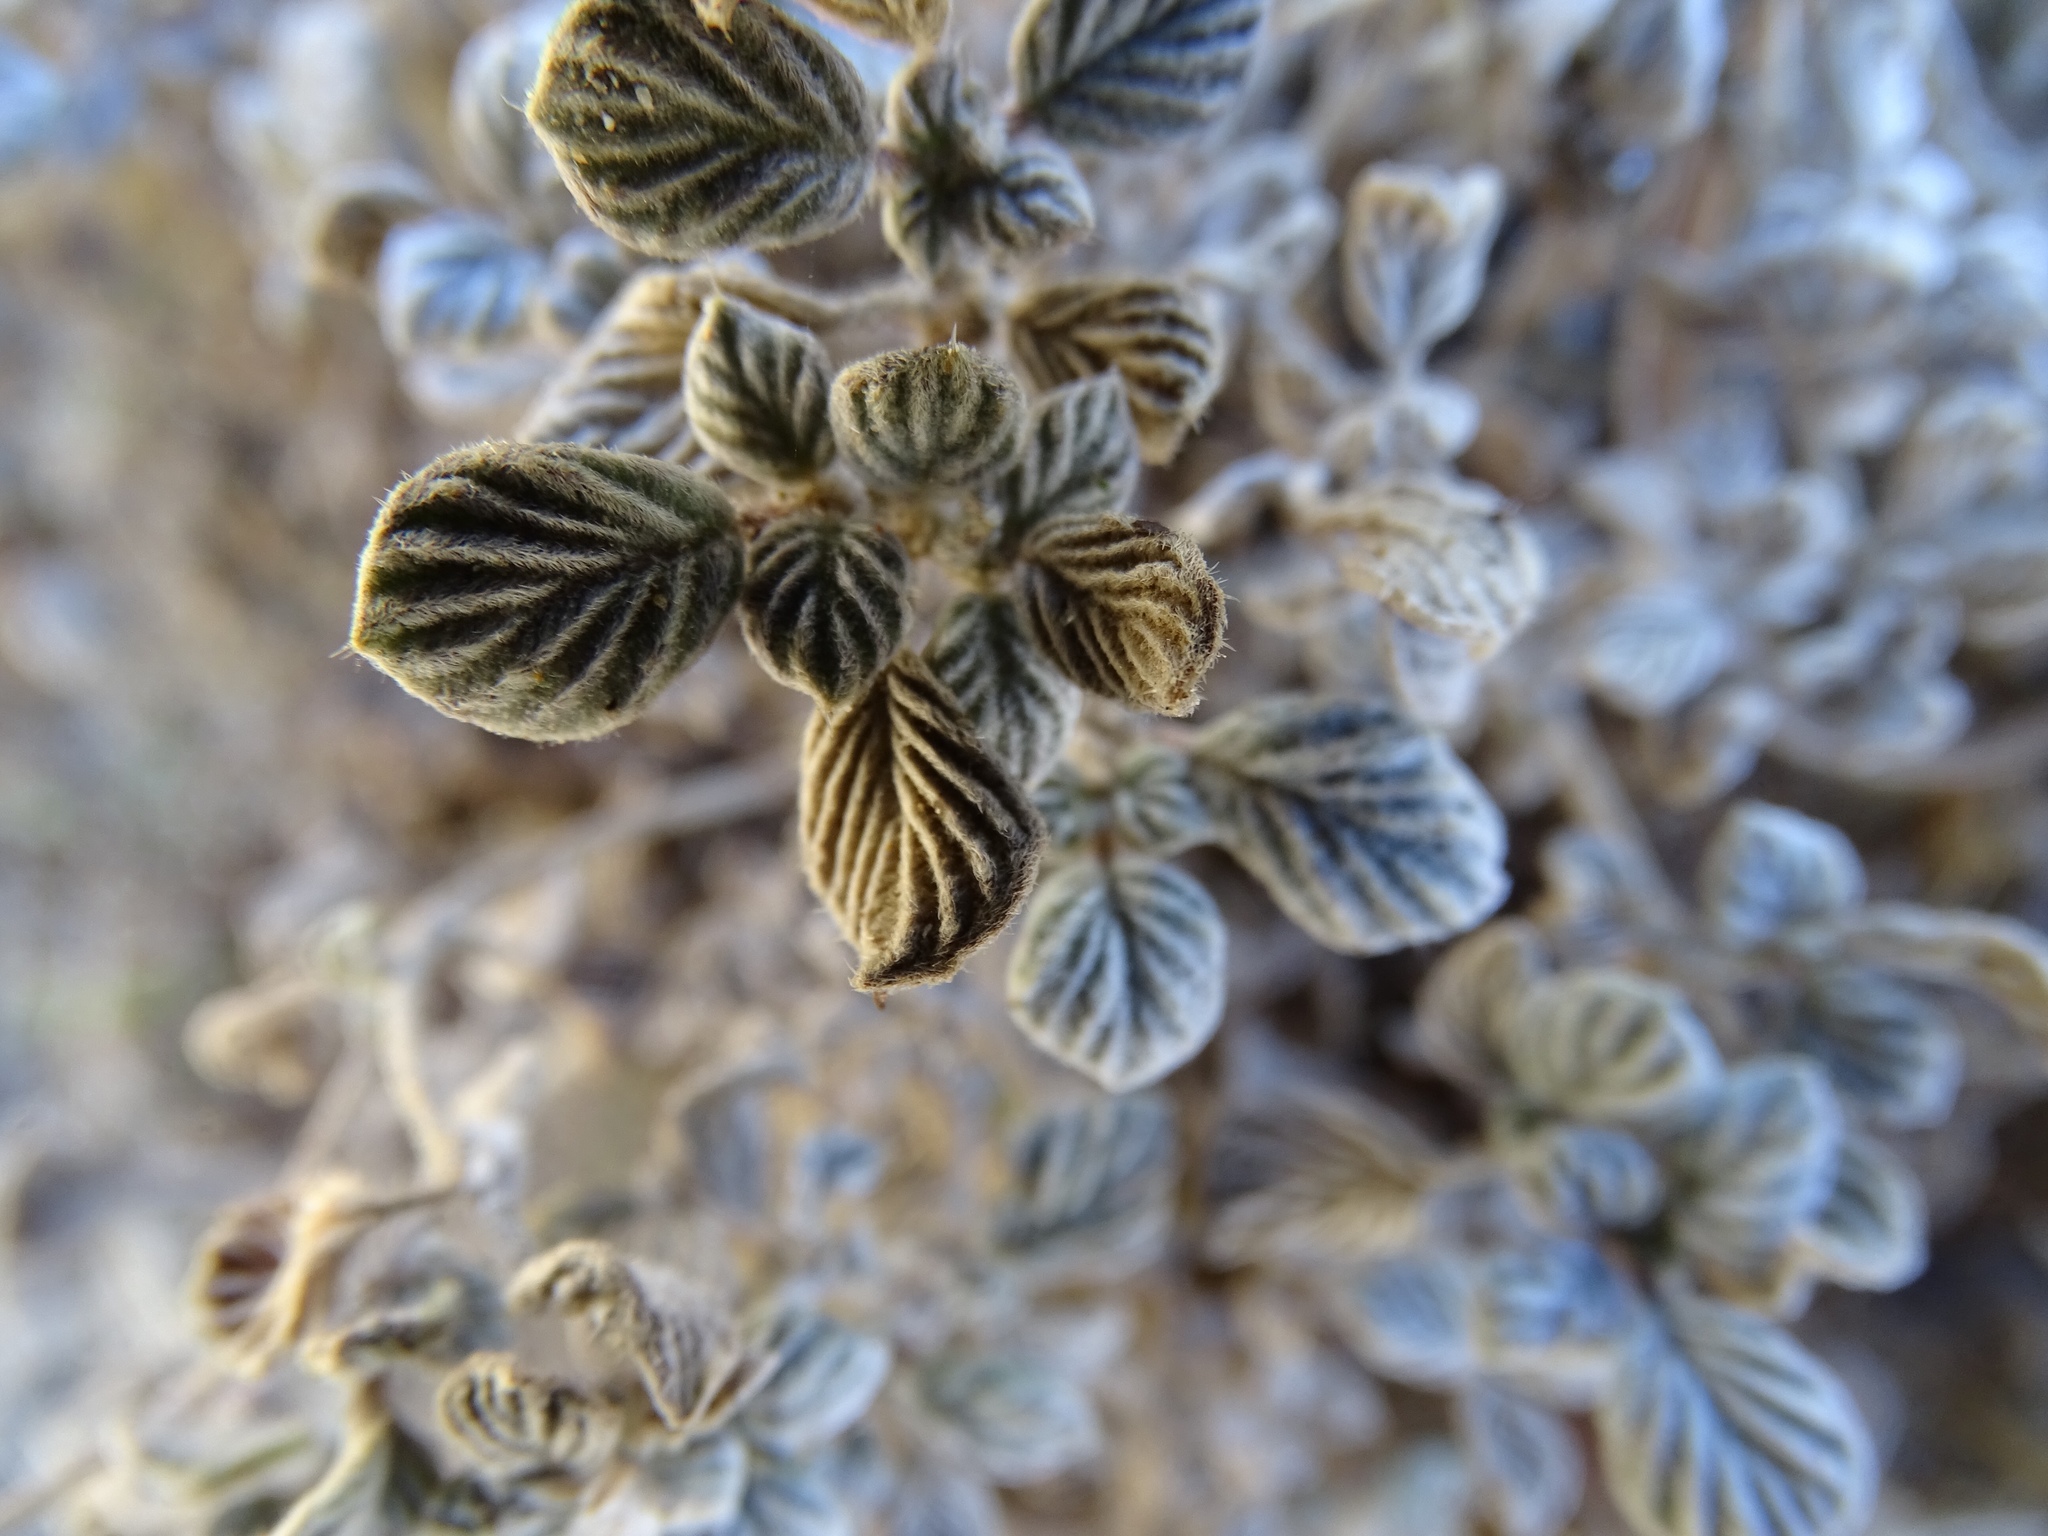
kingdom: Plantae
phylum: Tracheophyta
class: Magnoliopsida
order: Boraginales
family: Ehretiaceae
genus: Tiquilia
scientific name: Tiquilia plicata
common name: Fan-leaf tiquilia
